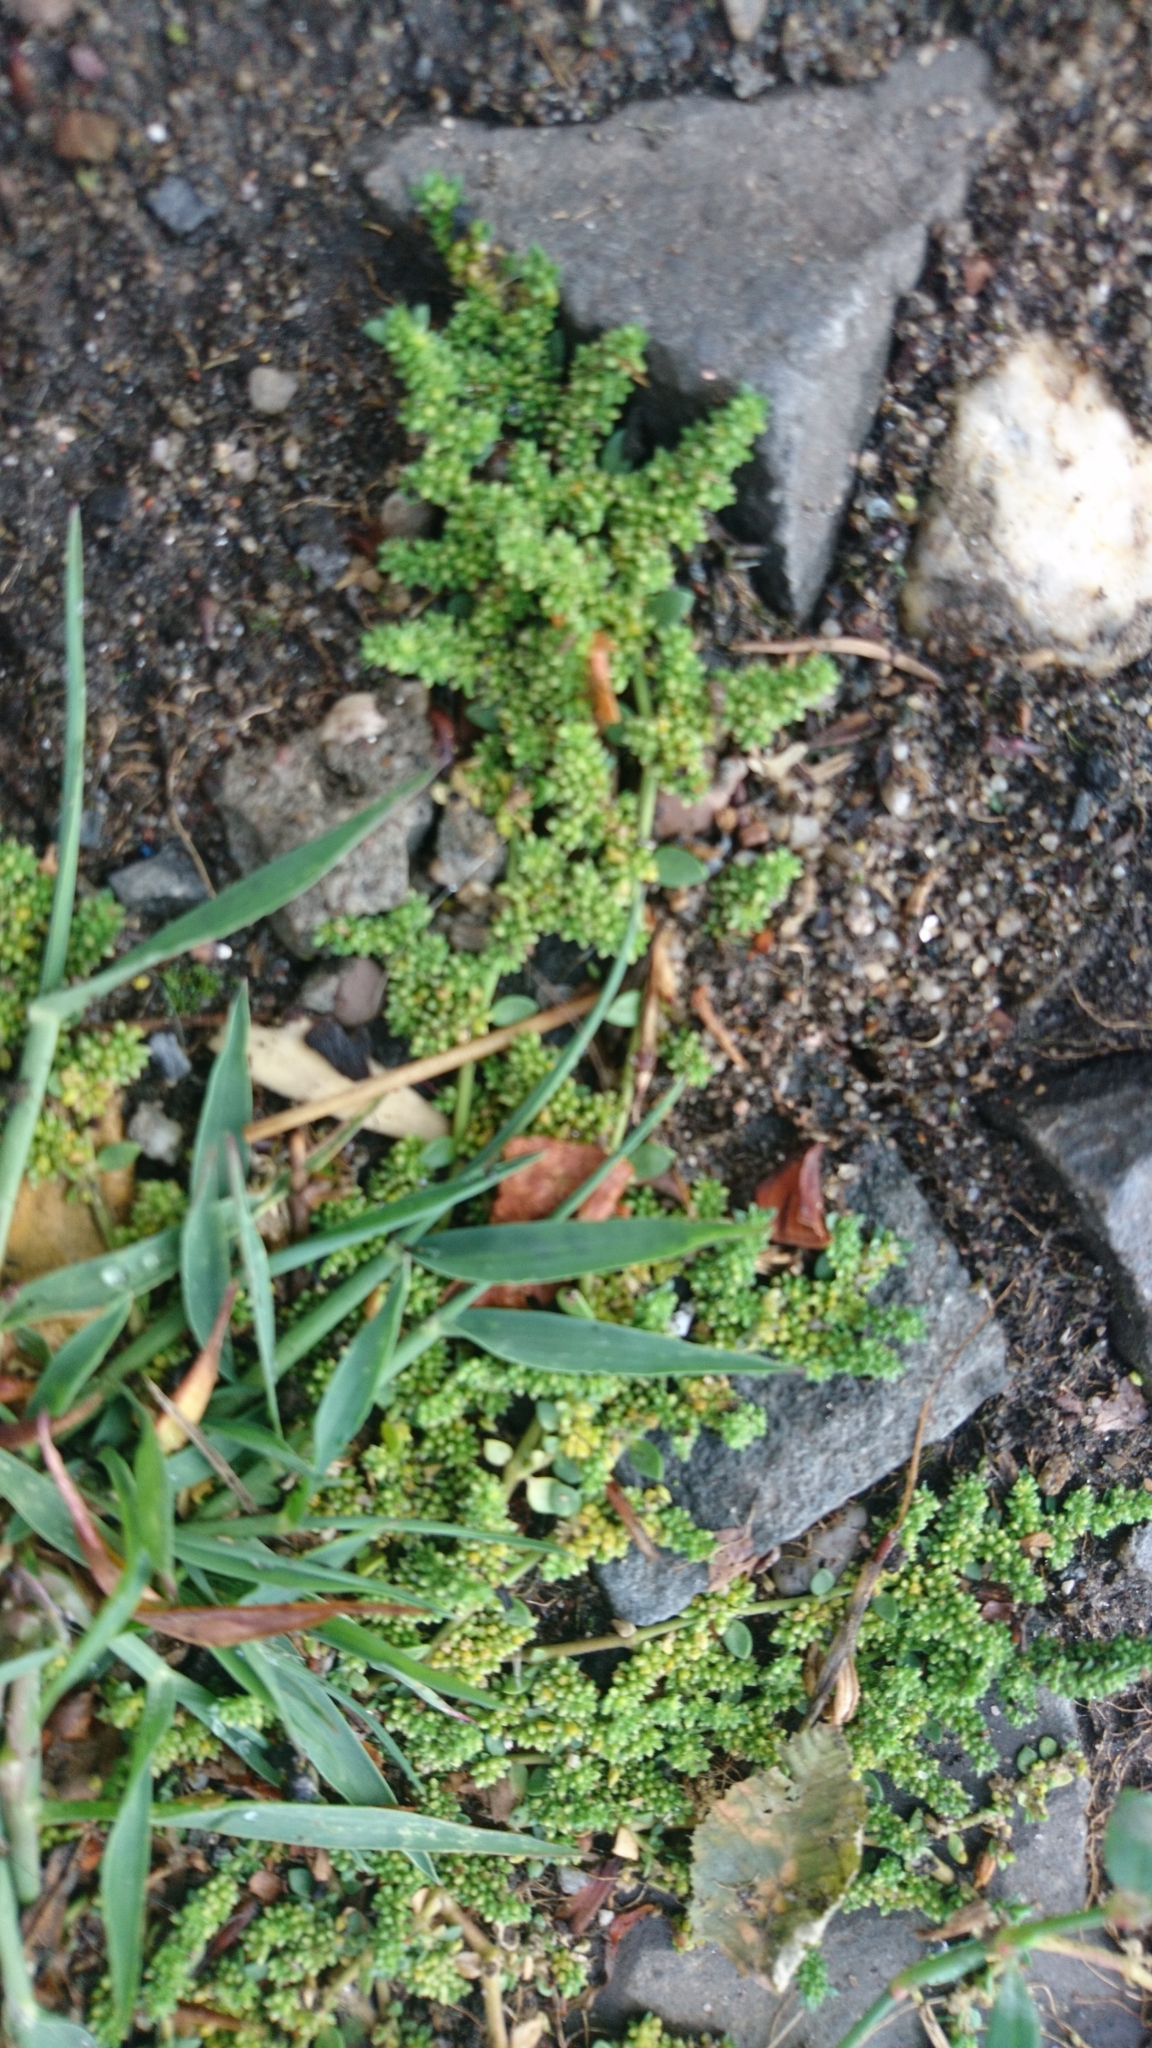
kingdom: Plantae
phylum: Tracheophyta
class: Magnoliopsida
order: Caryophyllales
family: Caryophyllaceae
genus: Herniaria
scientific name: Herniaria glabra
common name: Smooth rupturewort
